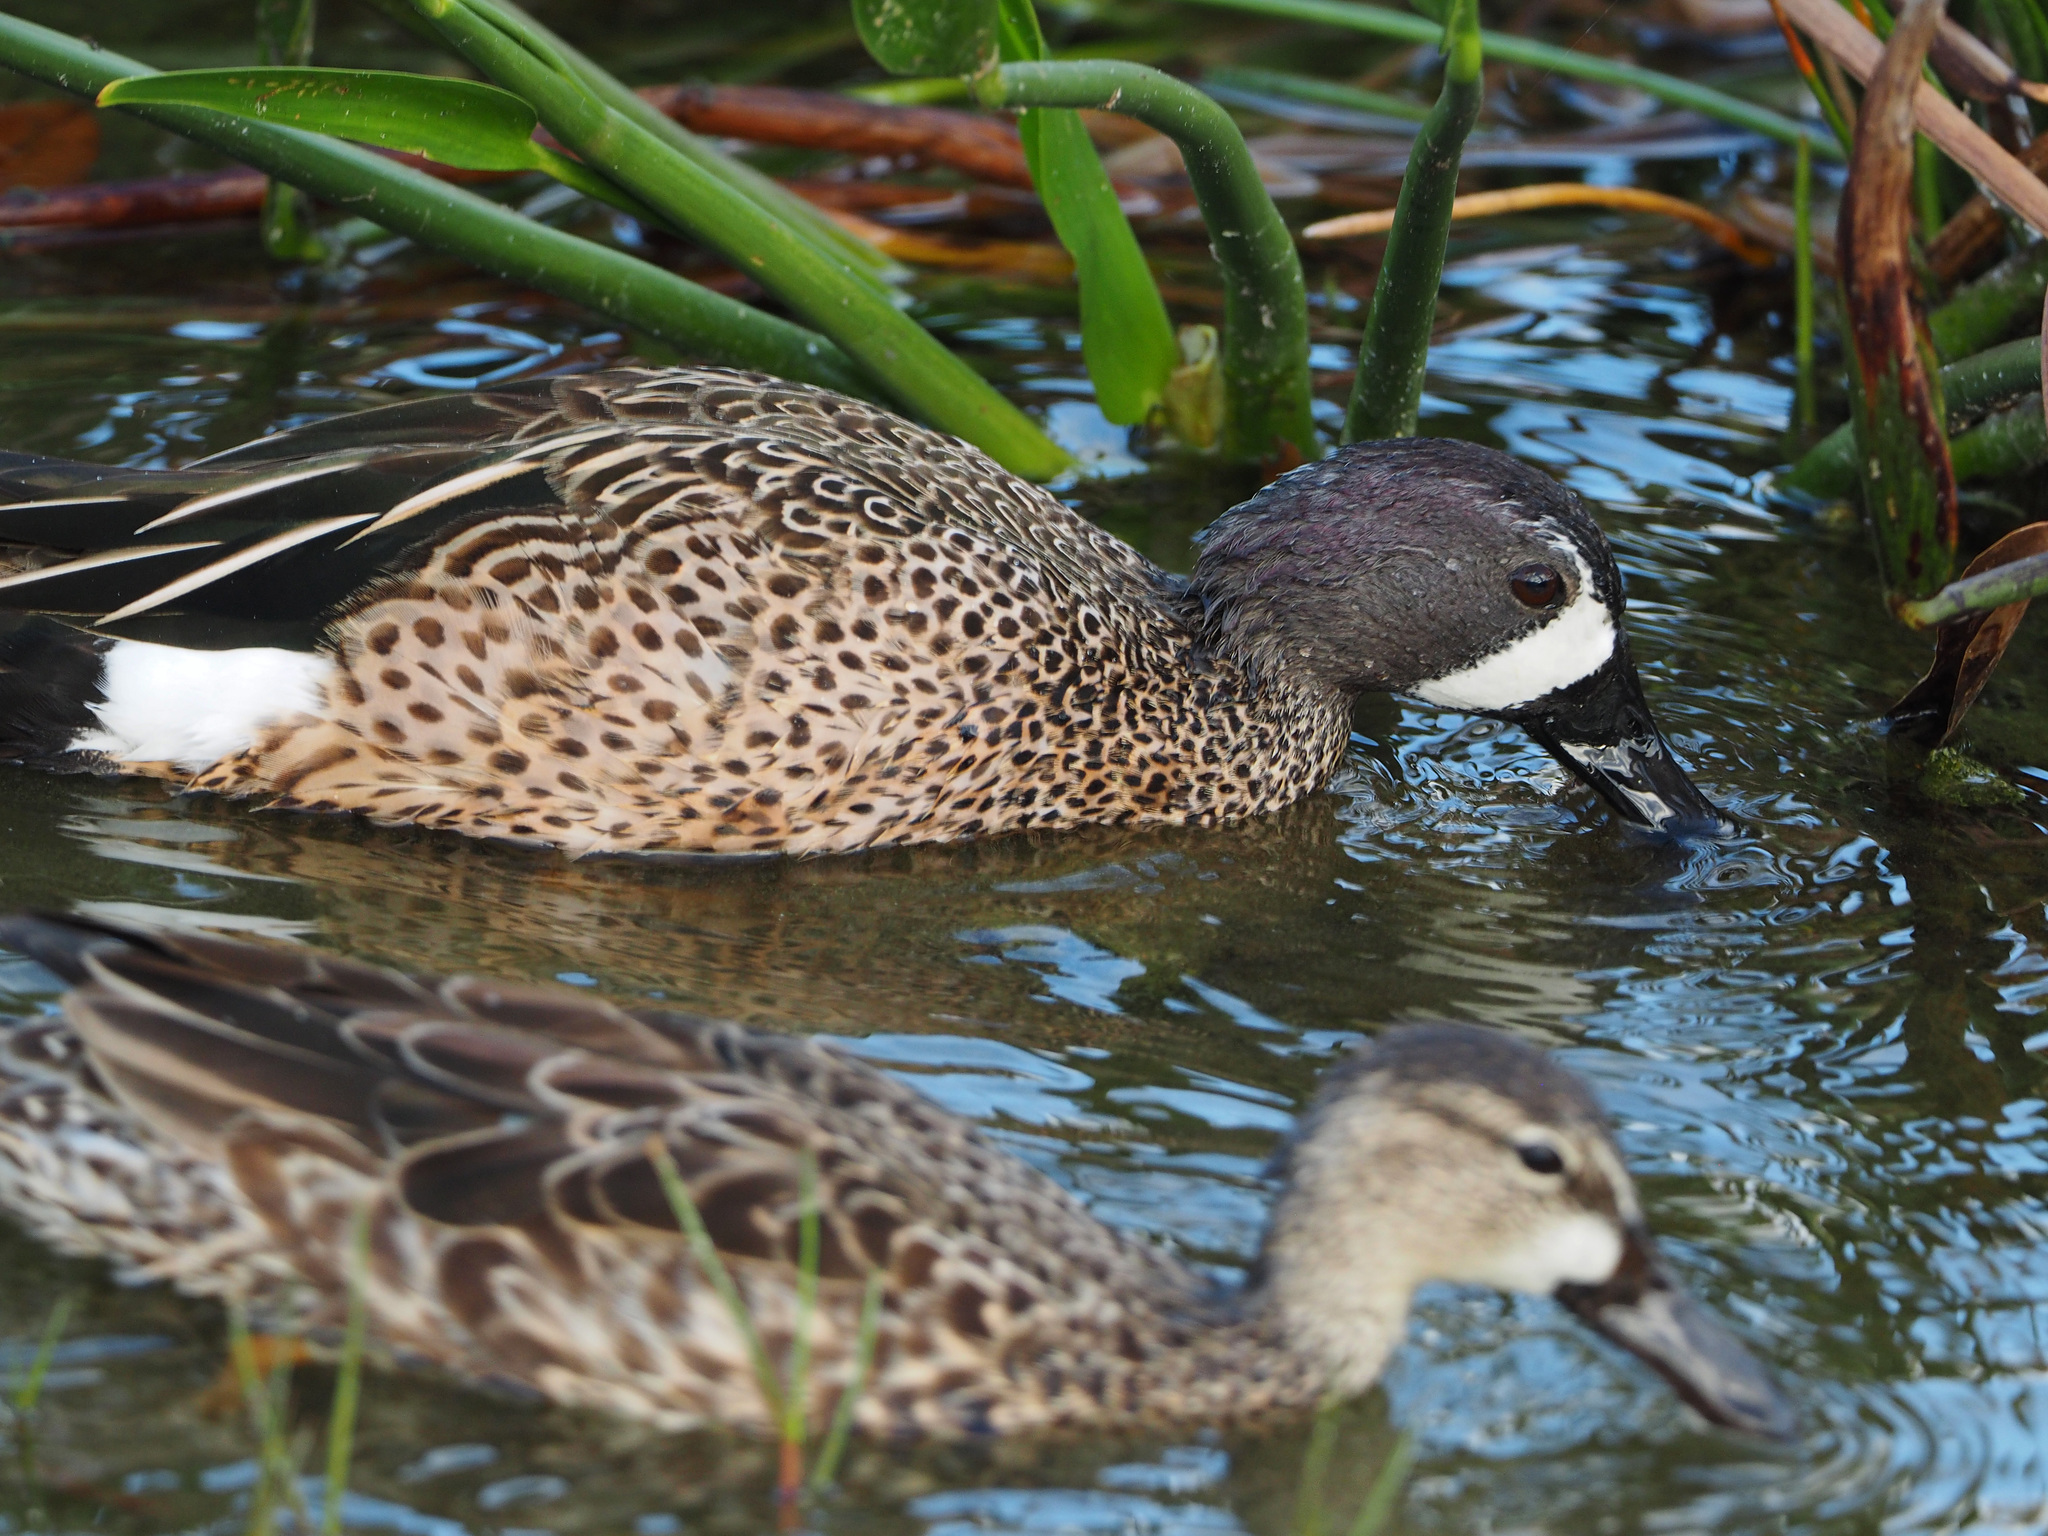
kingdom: Animalia
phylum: Chordata
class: Aves
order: Anseriformes
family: Anatidae
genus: Spatula
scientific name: Spatula discors
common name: Blue-winged teal
